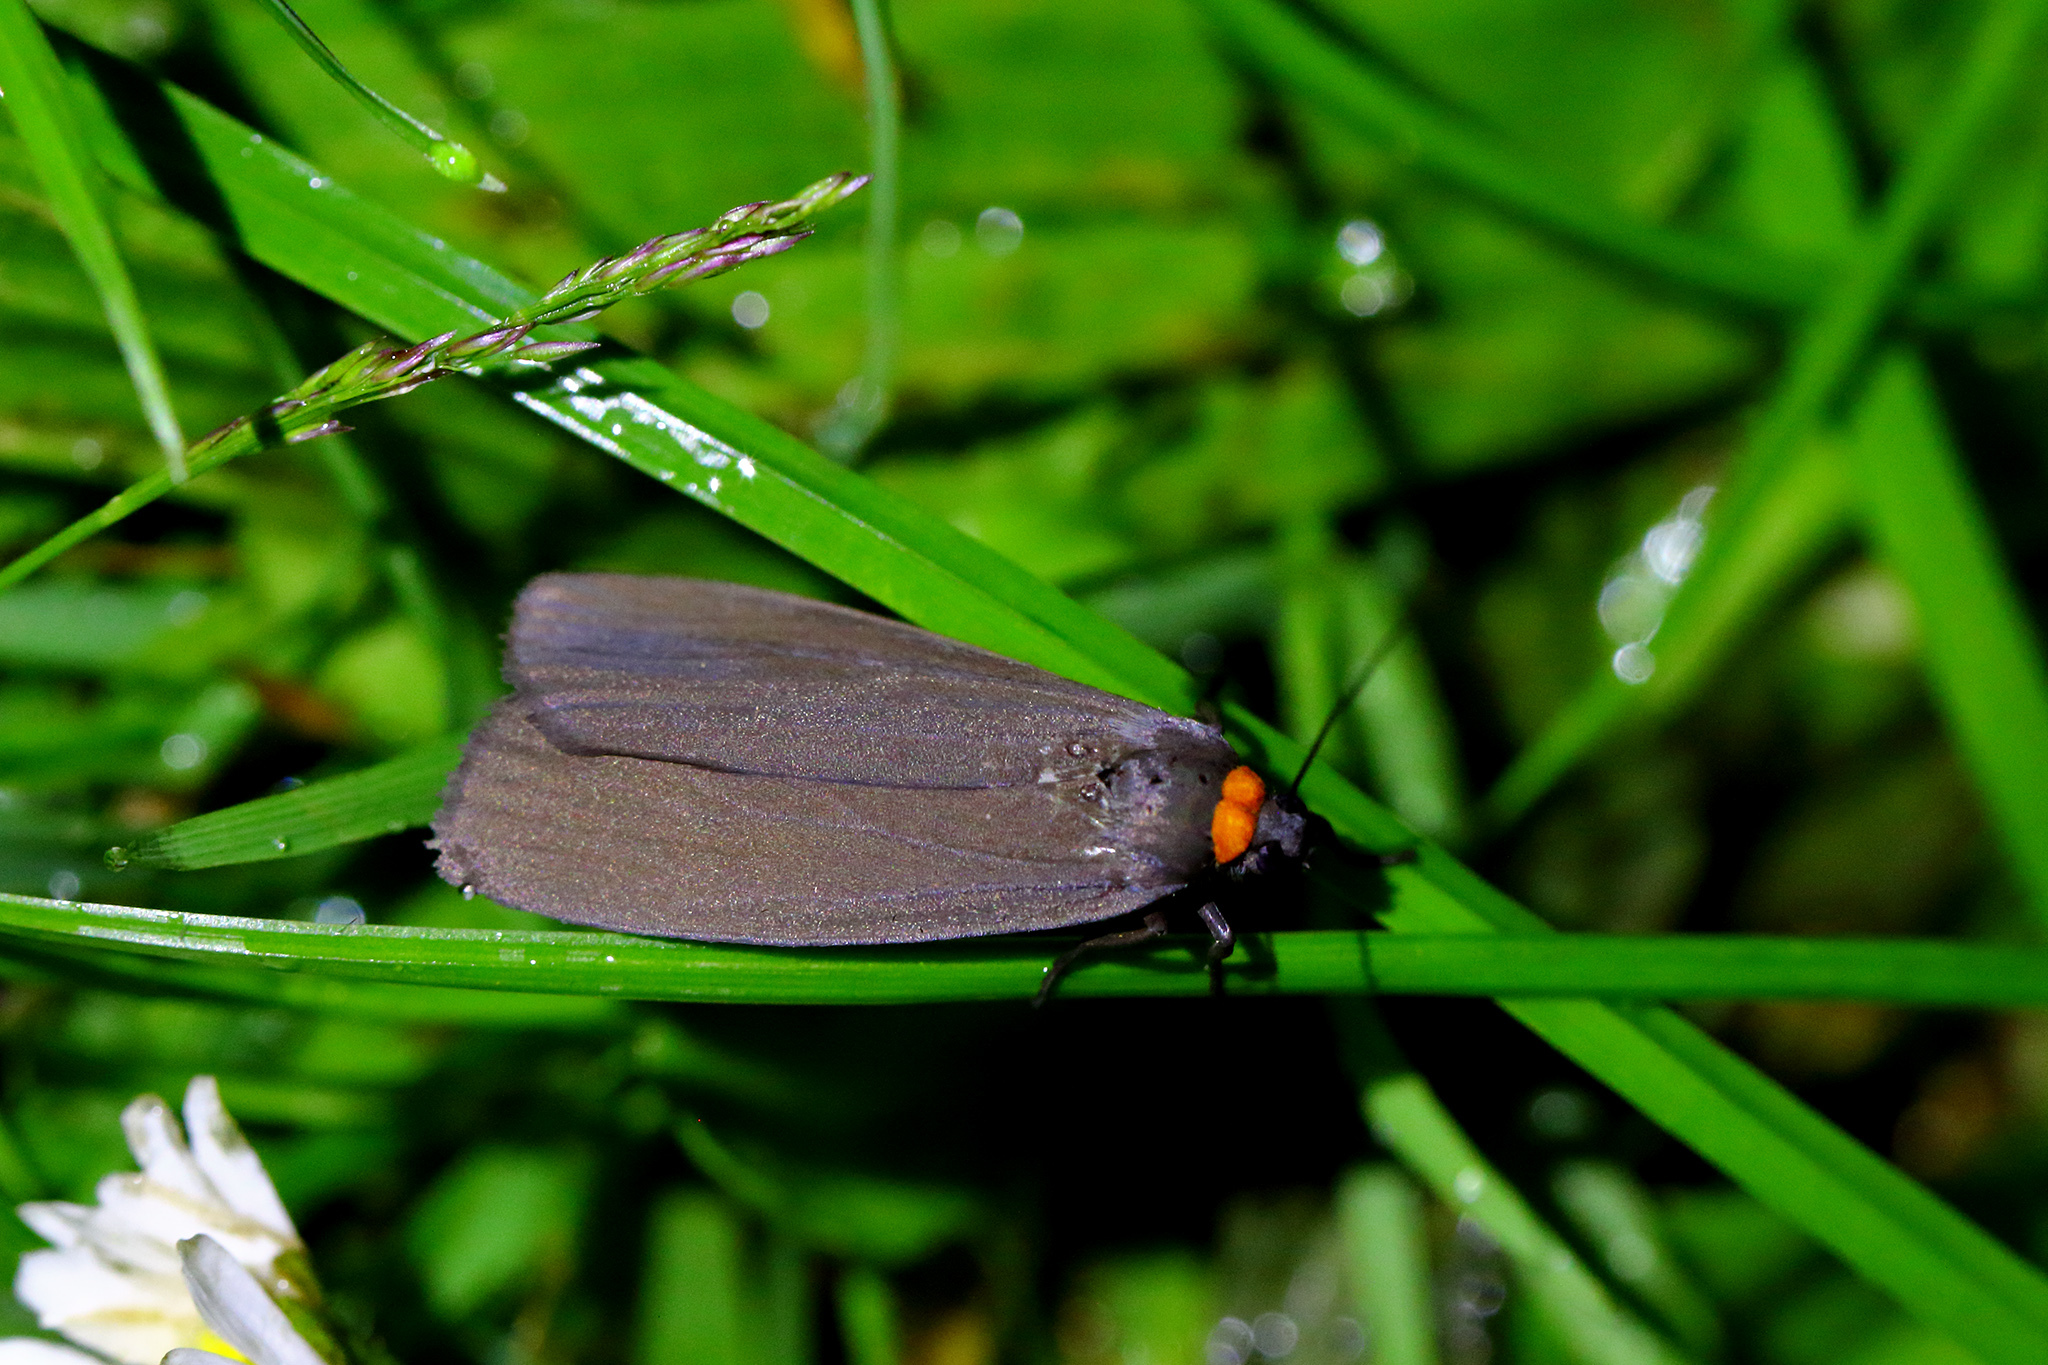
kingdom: Animalia
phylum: Arthropoda
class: Insecta
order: Lepidoptera
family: Erebidae
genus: Atolmis
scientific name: Atolmis rubricollis
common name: Red-necked footman
